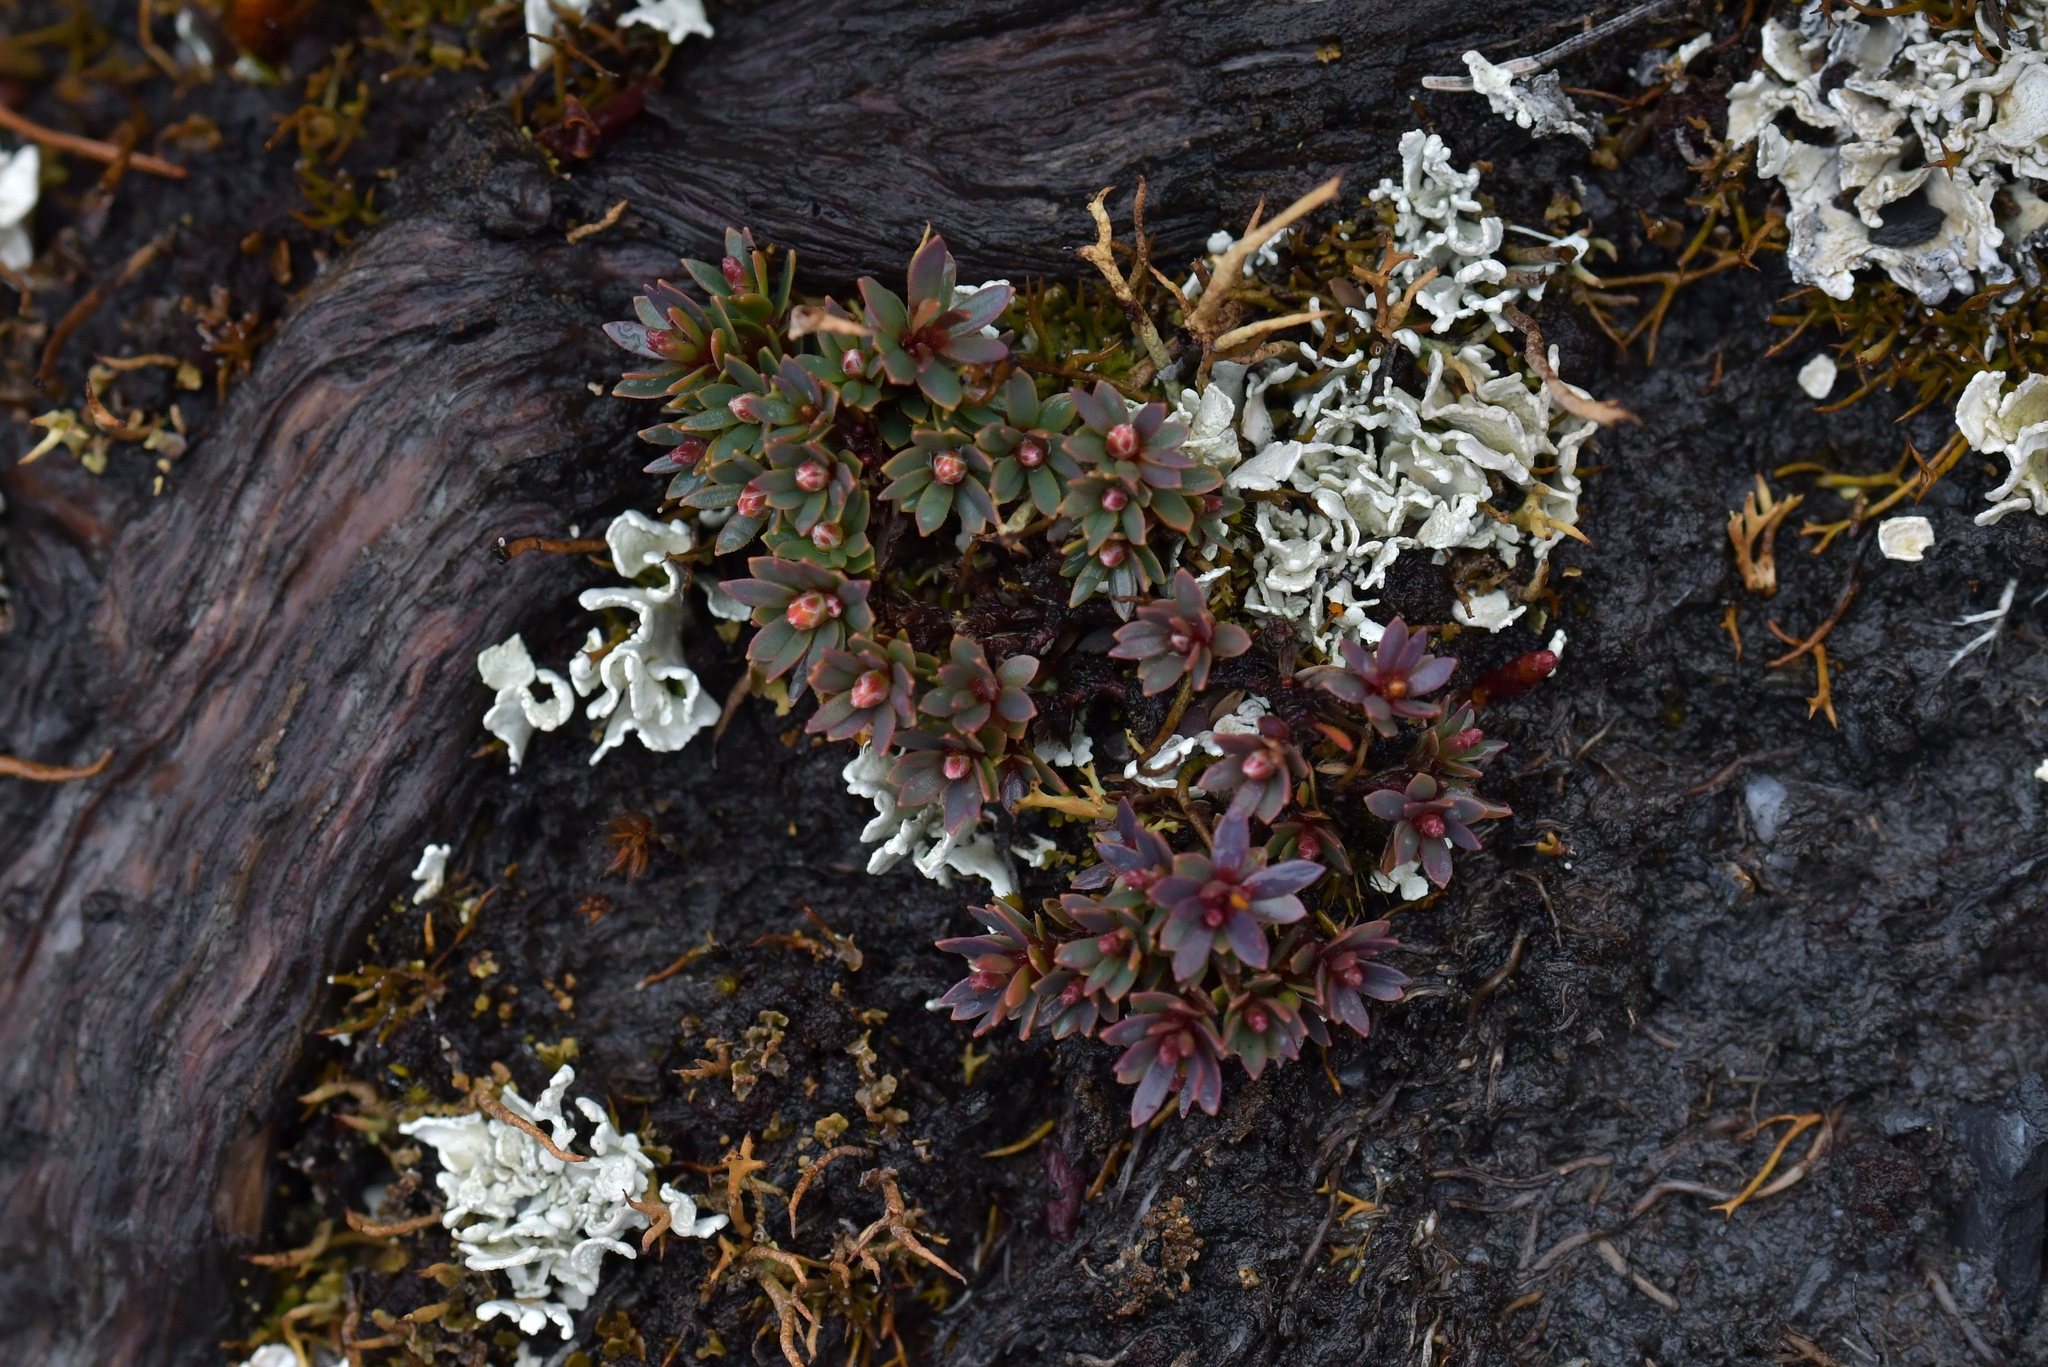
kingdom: Plantae
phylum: Tracheophyta
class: Magnoliopsida
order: Ericales
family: Ericaceae
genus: Pentachondra
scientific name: Pentachondra pumila
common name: Carpet-heath
